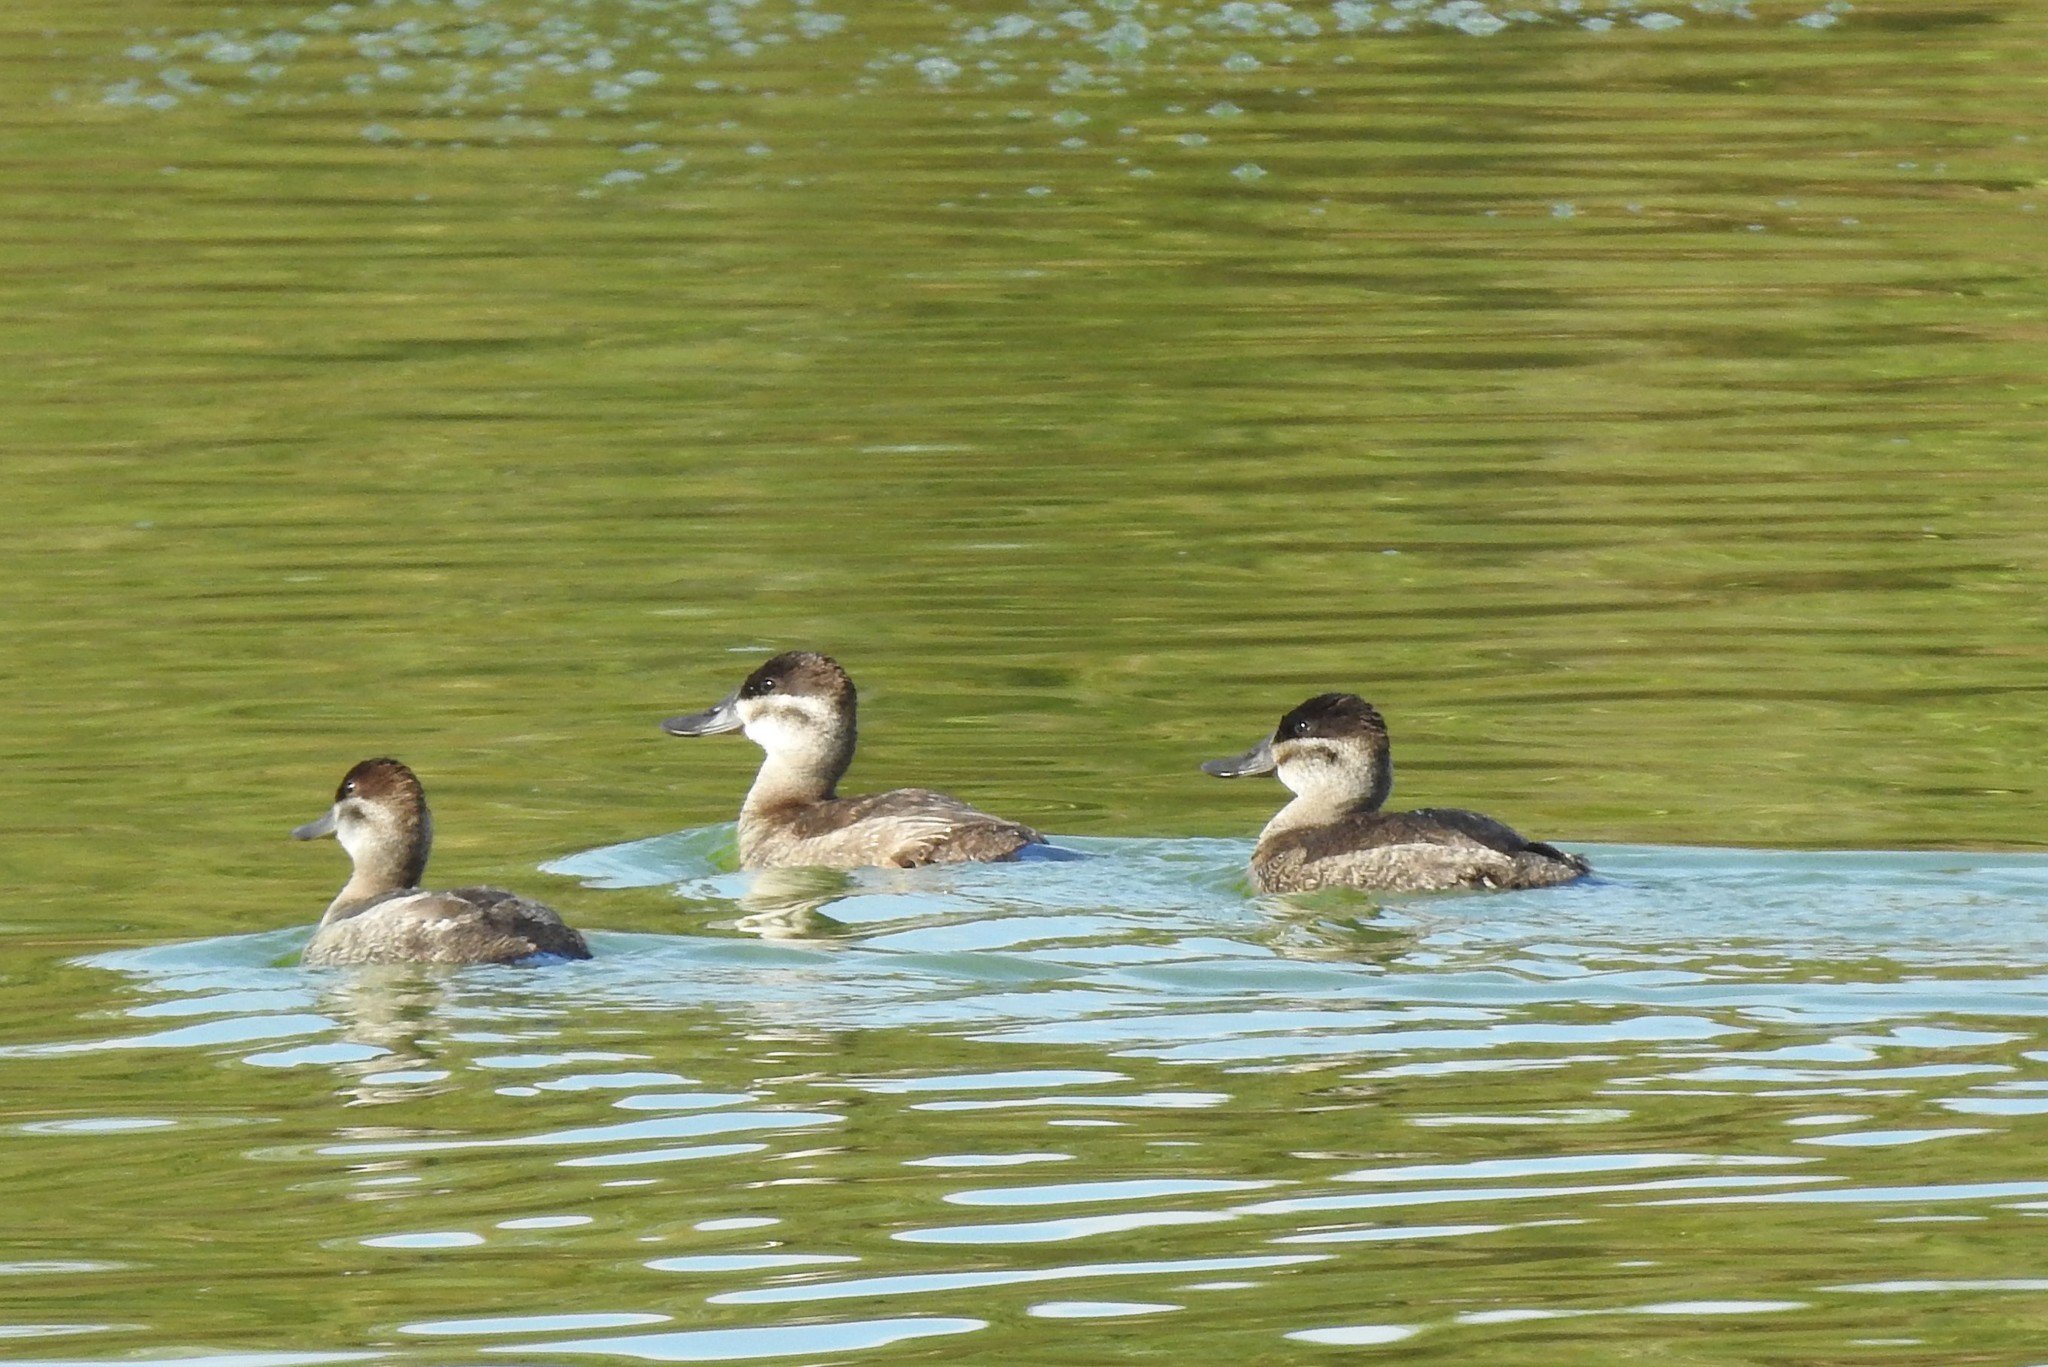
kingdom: Animalia
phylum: Chordata
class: Aves
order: Anseriformes
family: Anatidae
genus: Oxyura
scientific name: Oxyura jamaicensis
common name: Ruddy duck
